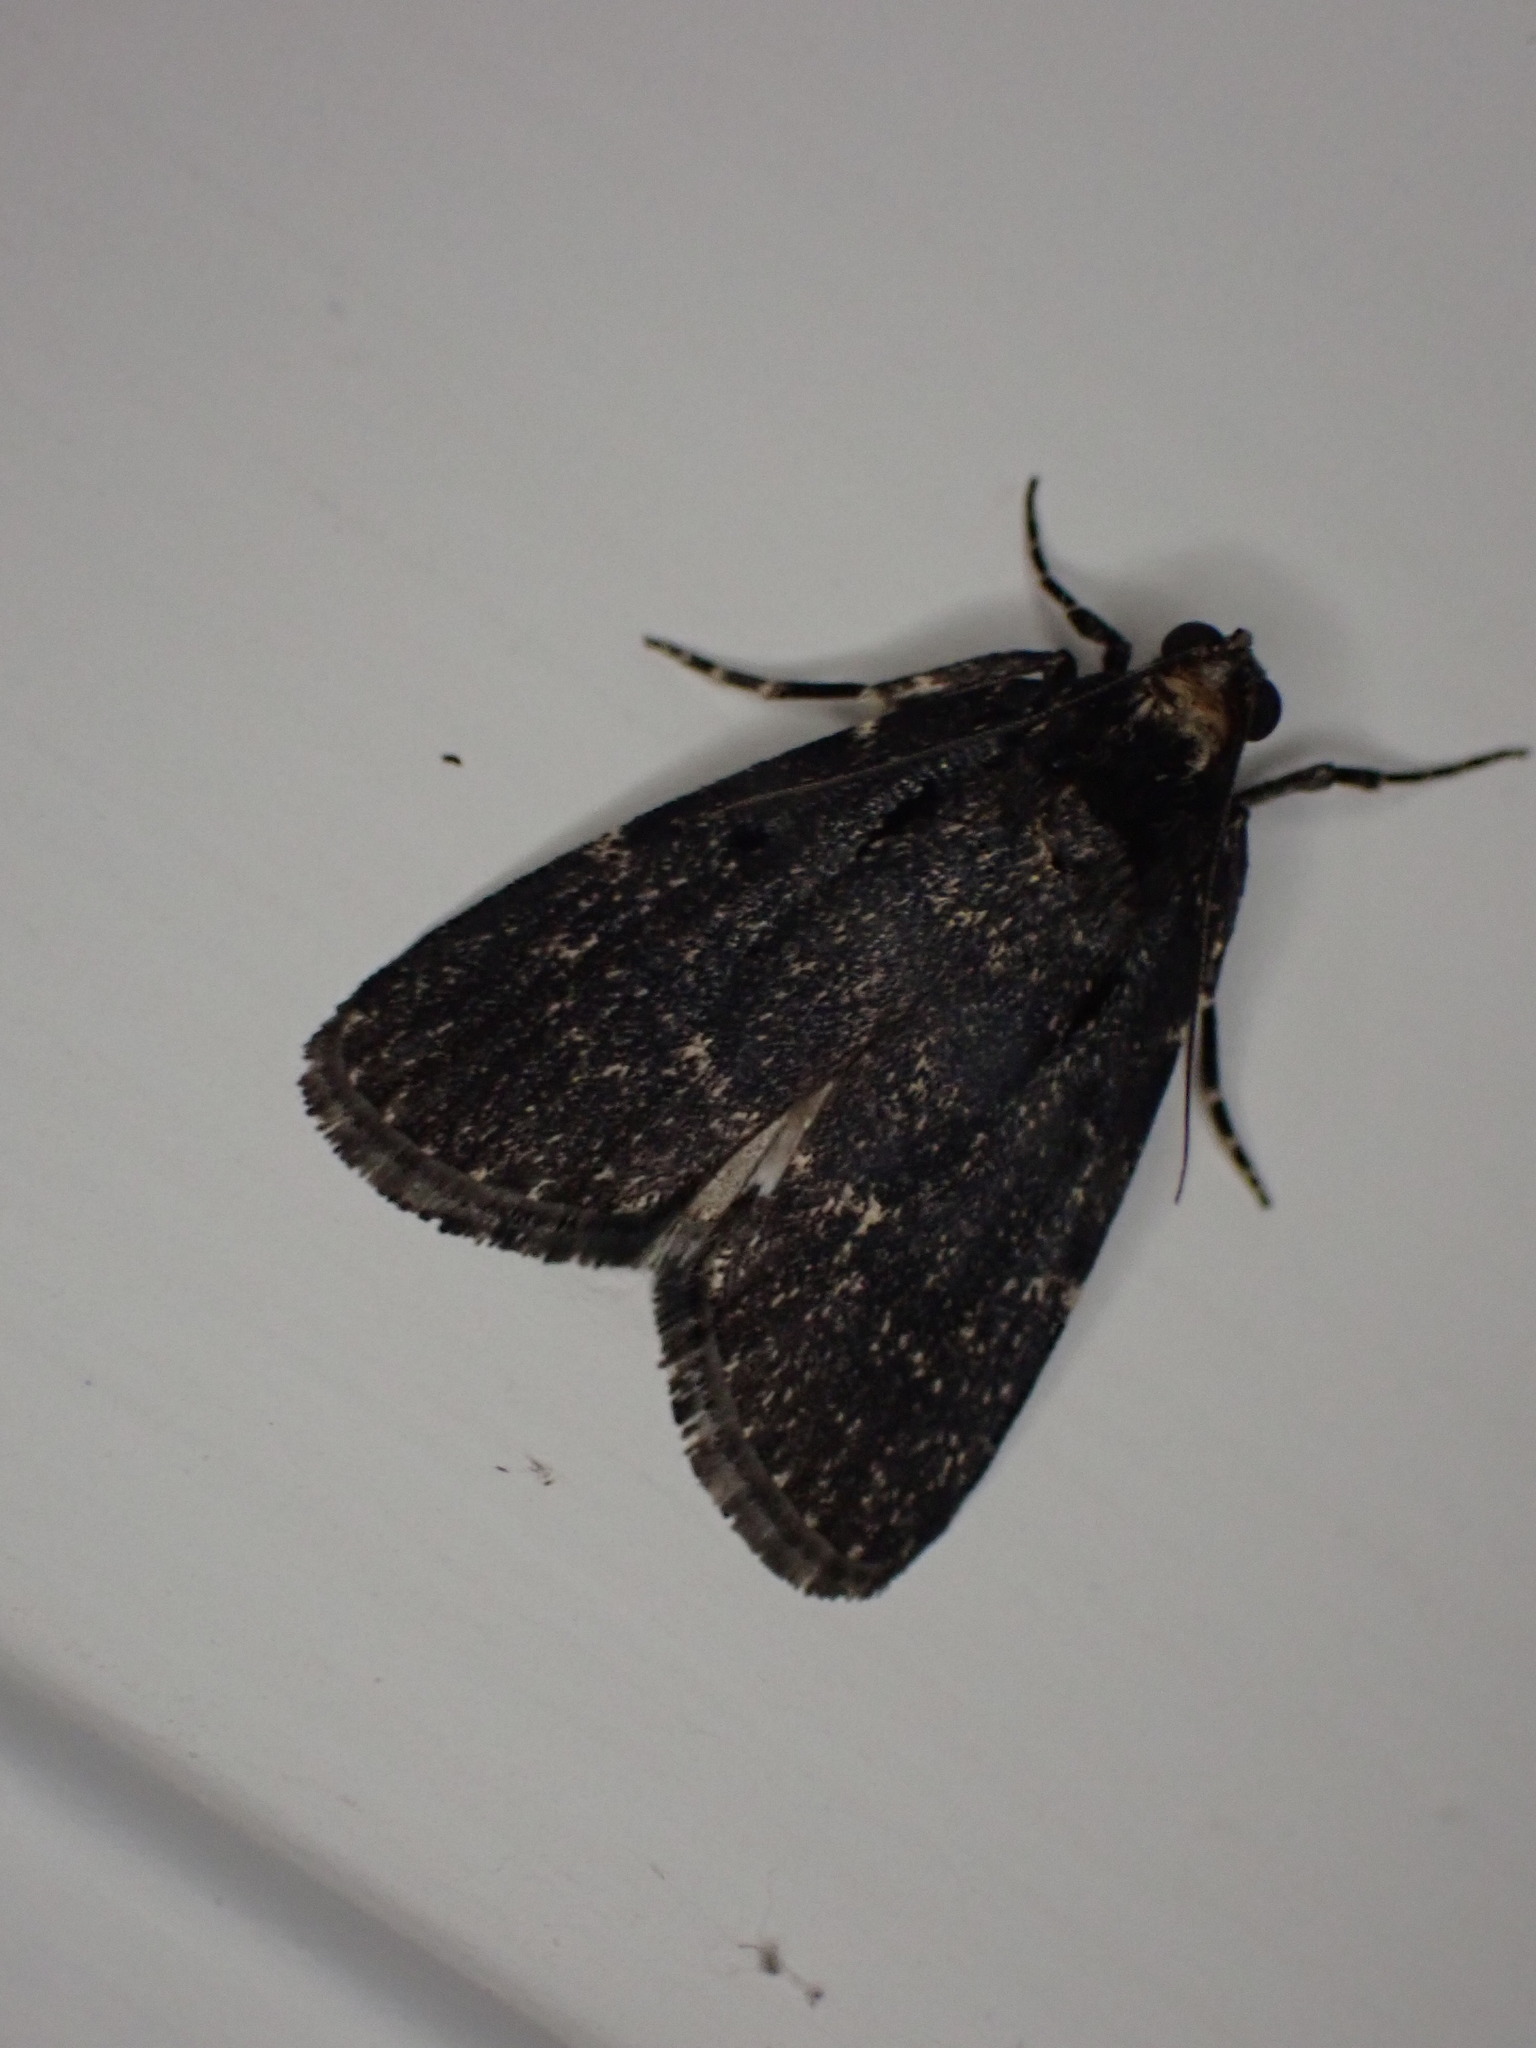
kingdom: Animalia
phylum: Arthropoda
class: Insecta
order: Lepidoptera
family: Pyralidae
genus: Stericta
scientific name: Stericta carbonalis
